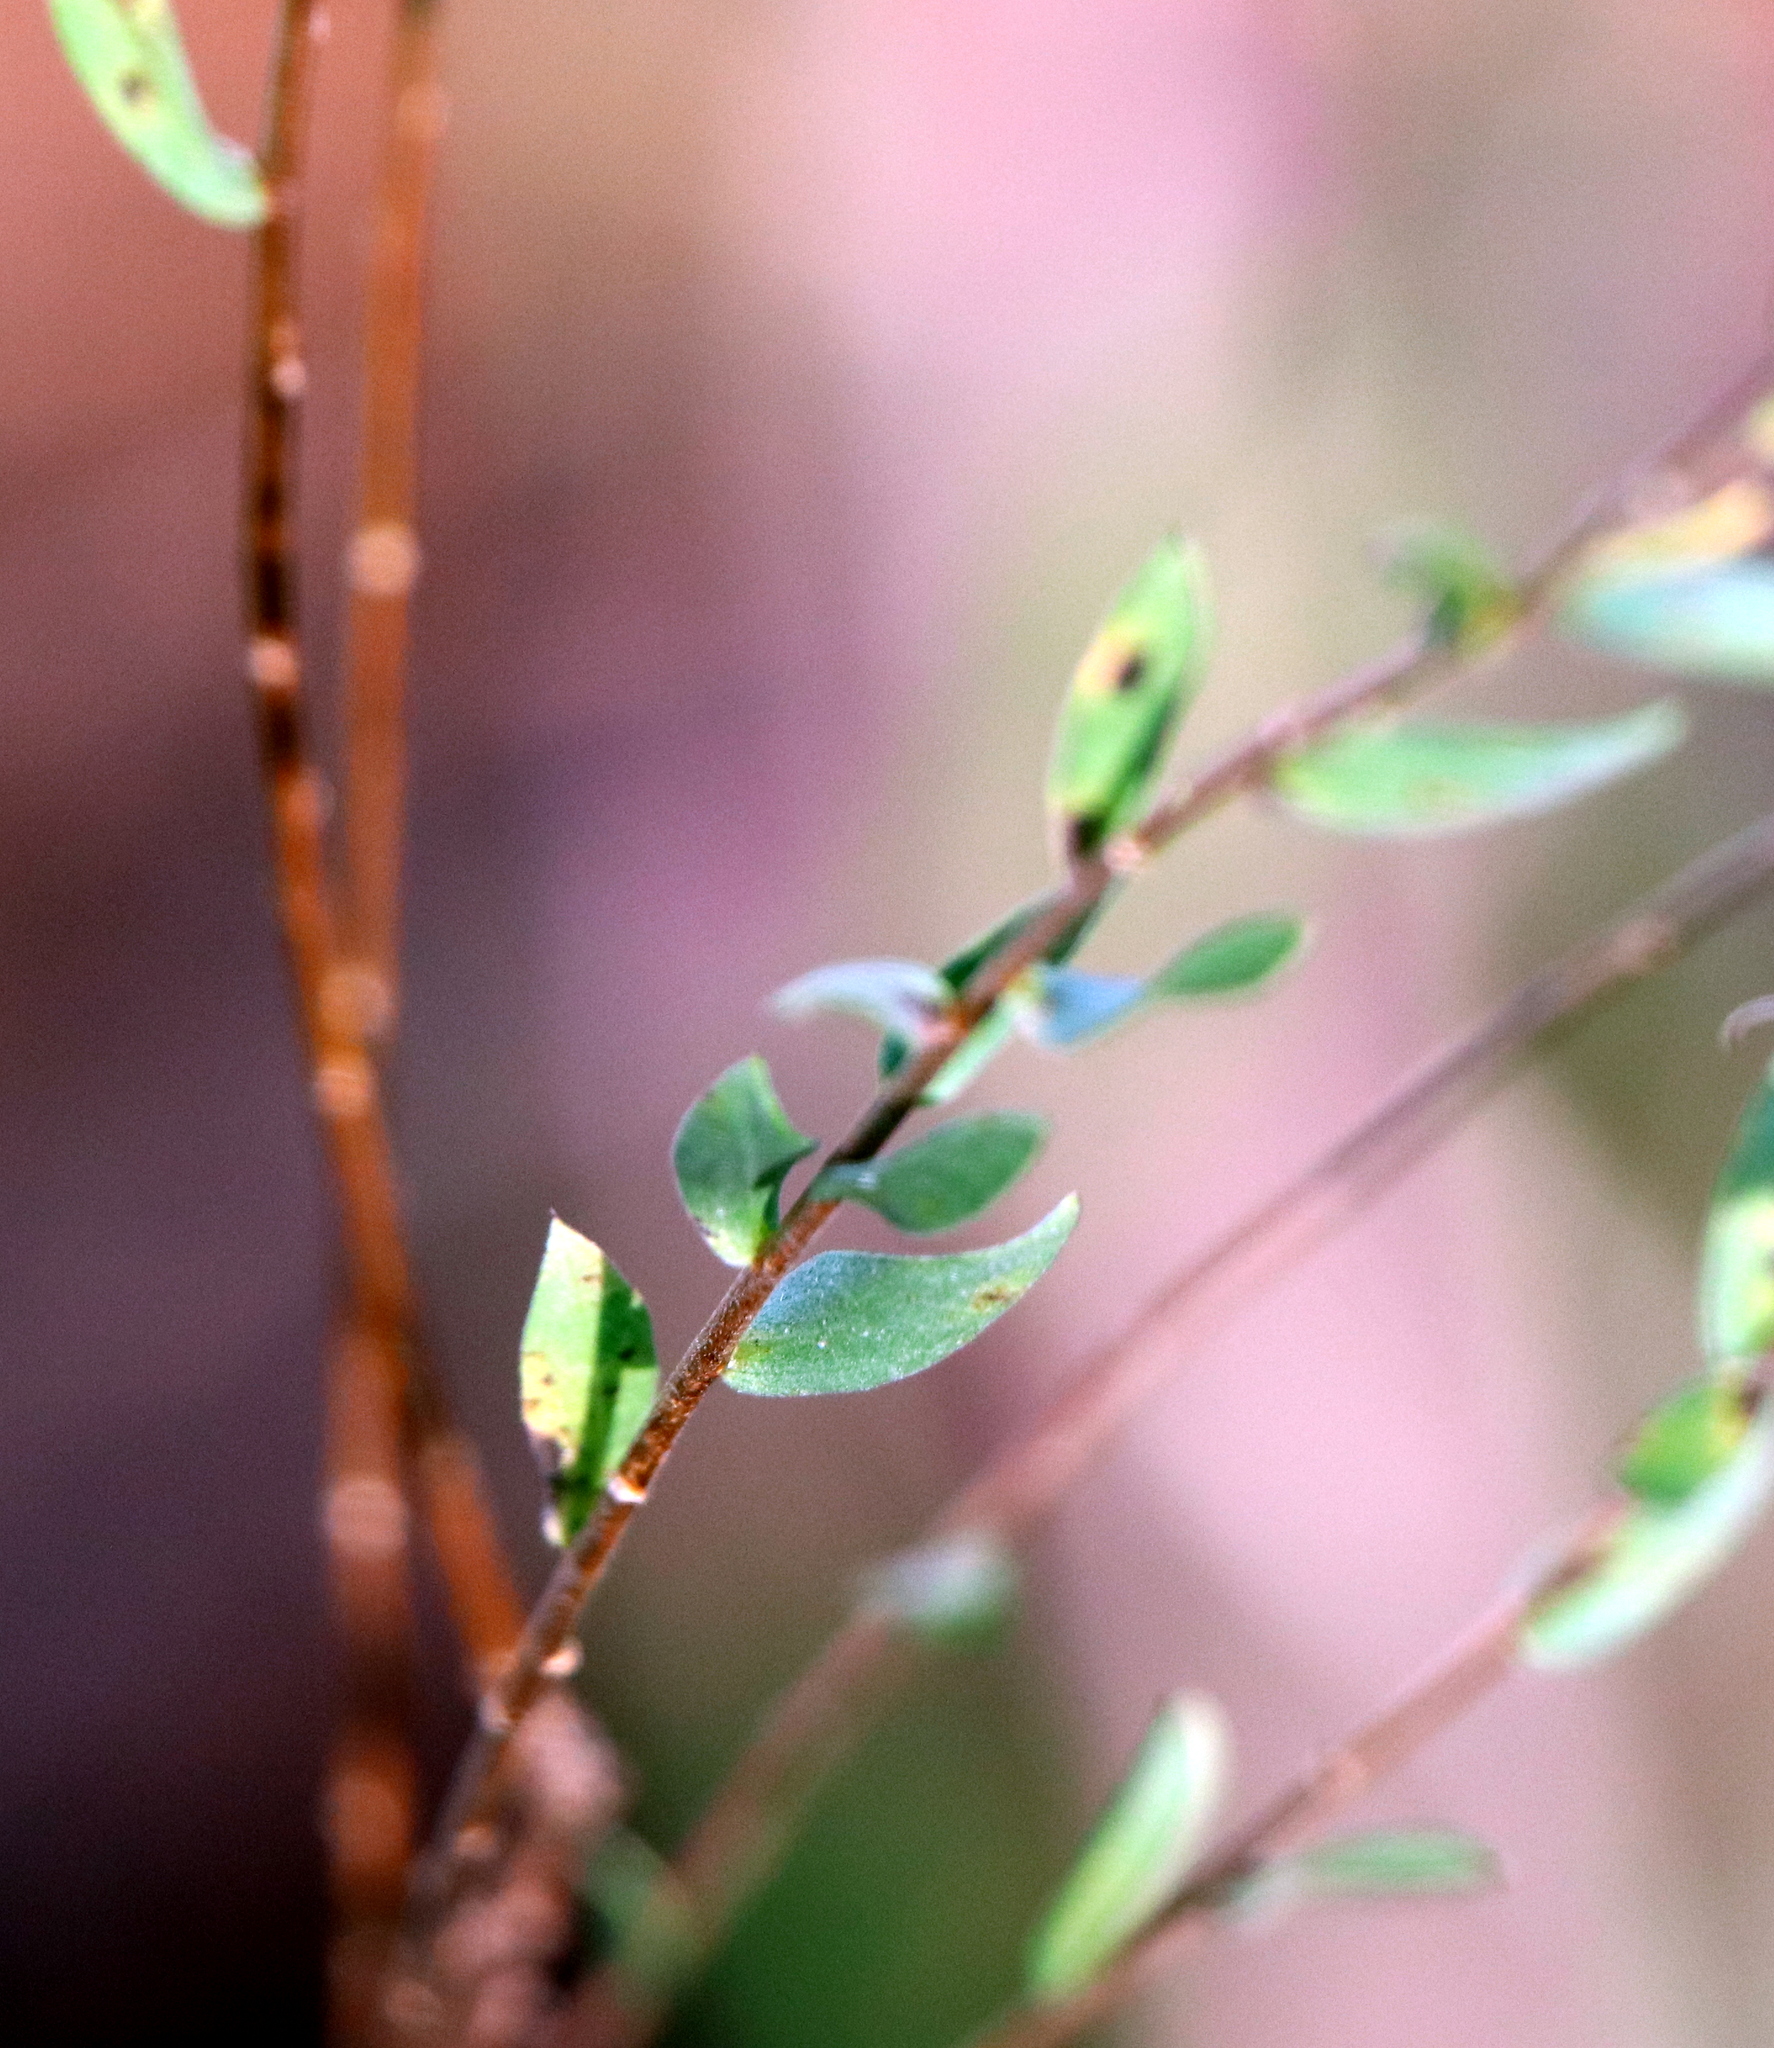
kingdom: Plantae
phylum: Tracheophyta
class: Magnoliopsida
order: Asterales
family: Asteraceae
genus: Symphyotrichum
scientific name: Symphyotrichum concolor
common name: Eastern silver aster
